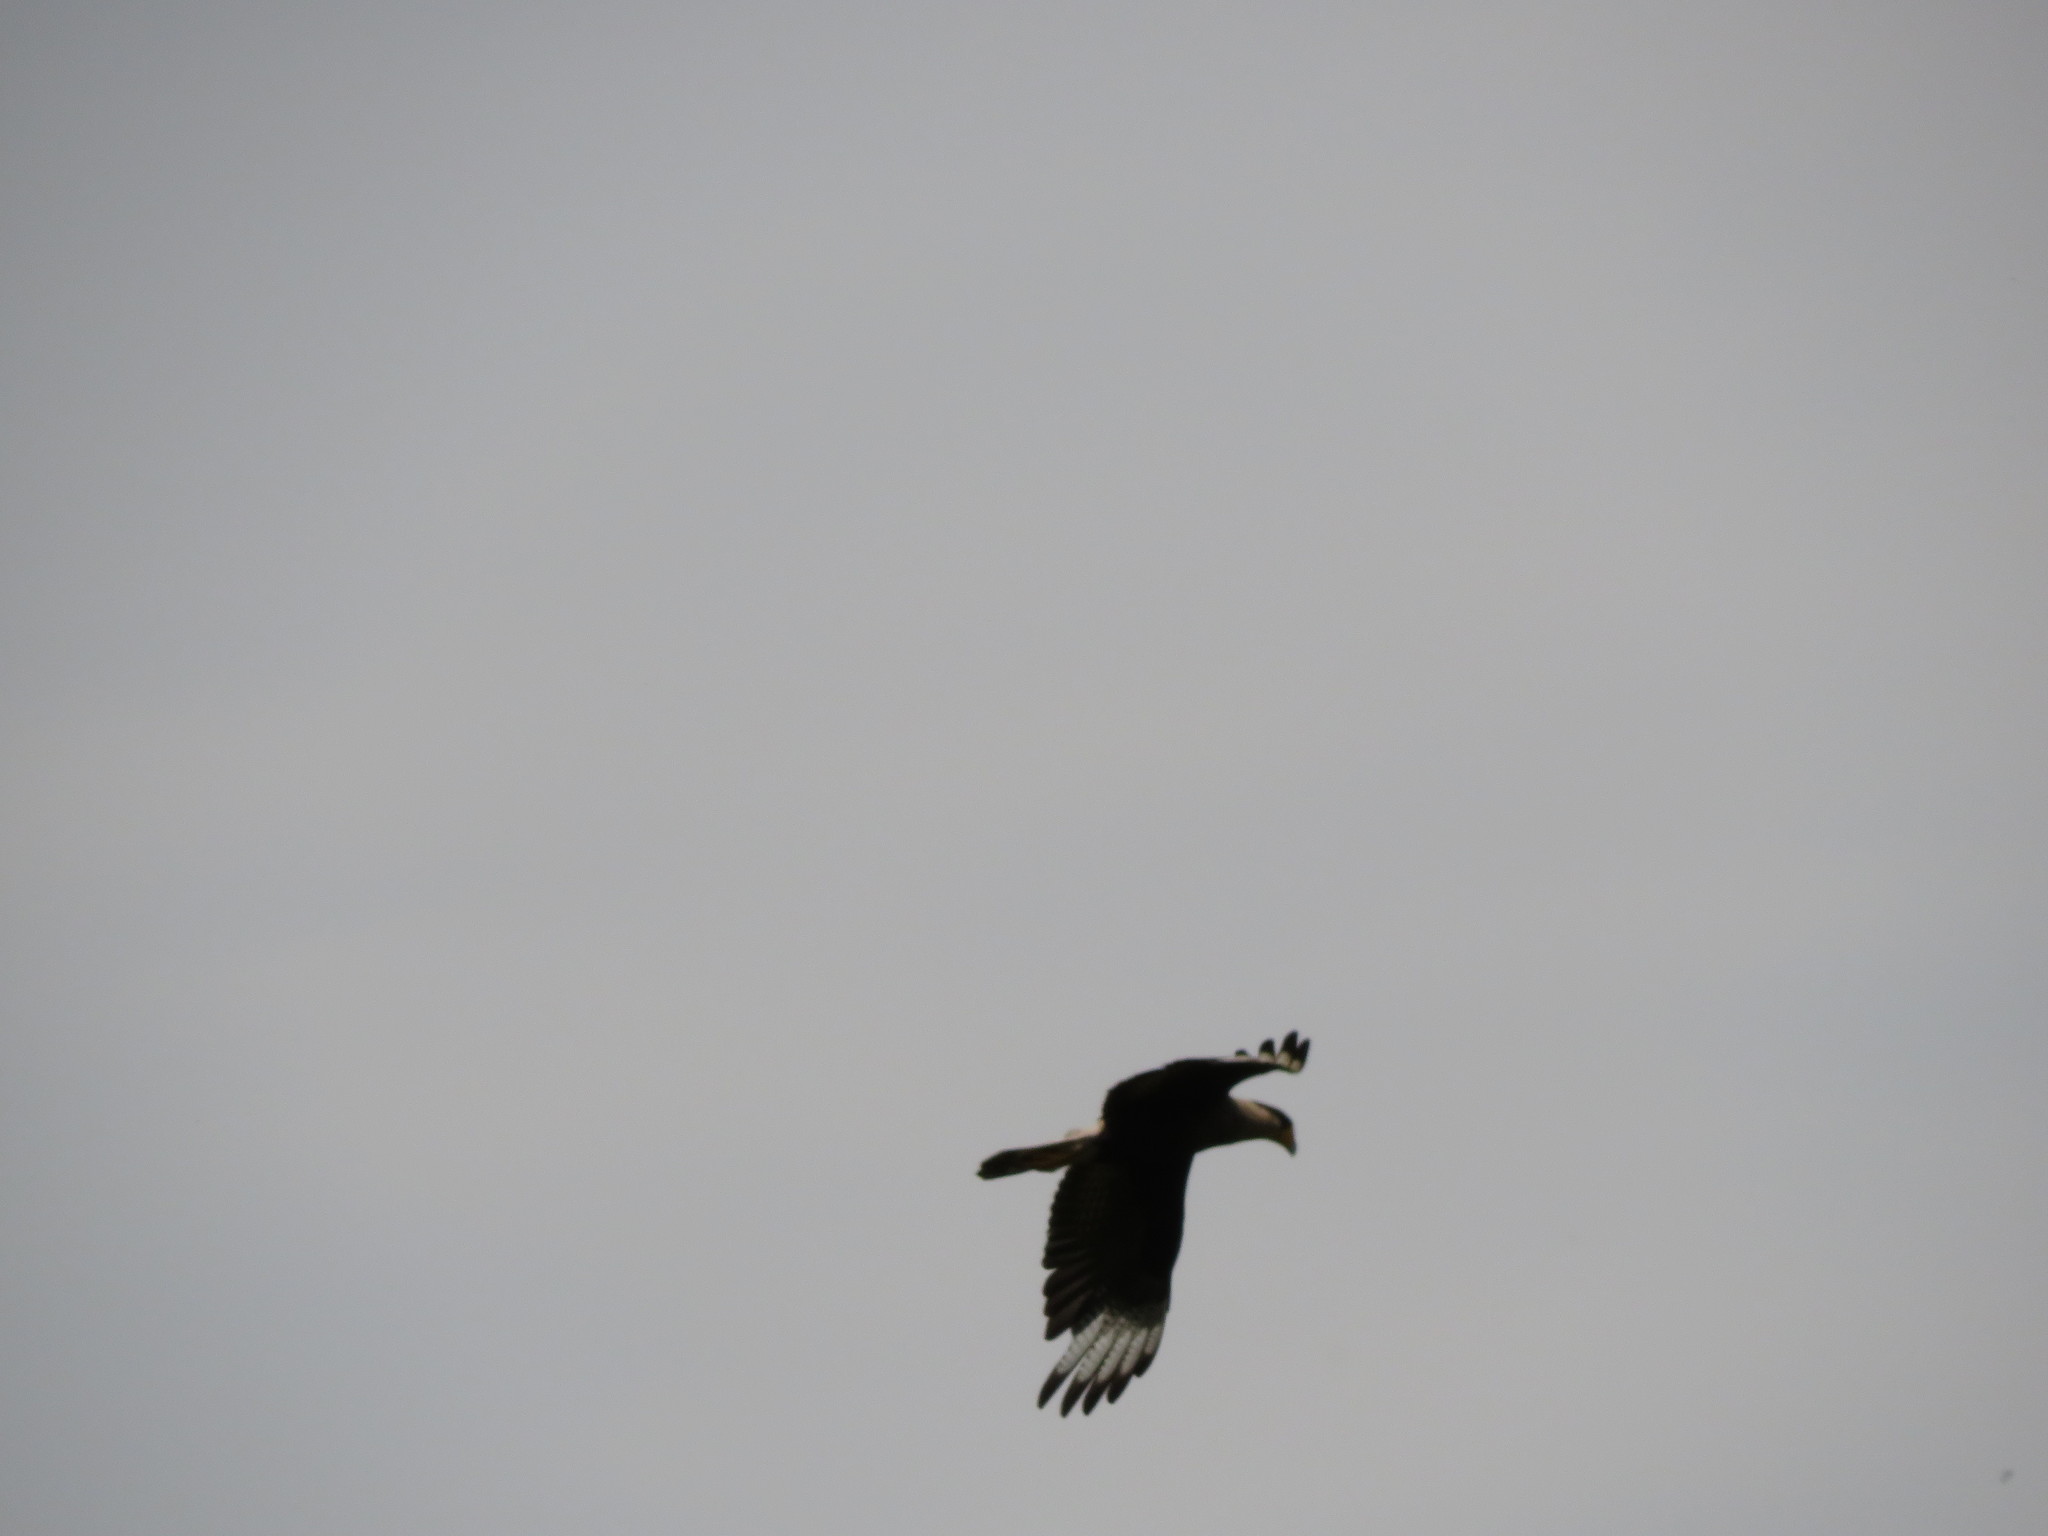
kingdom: Animalia
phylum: Chordata
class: Aves
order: Falconiformes
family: Falconidae
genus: Caracara
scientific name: Caracara plancus
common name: Southern caracara
